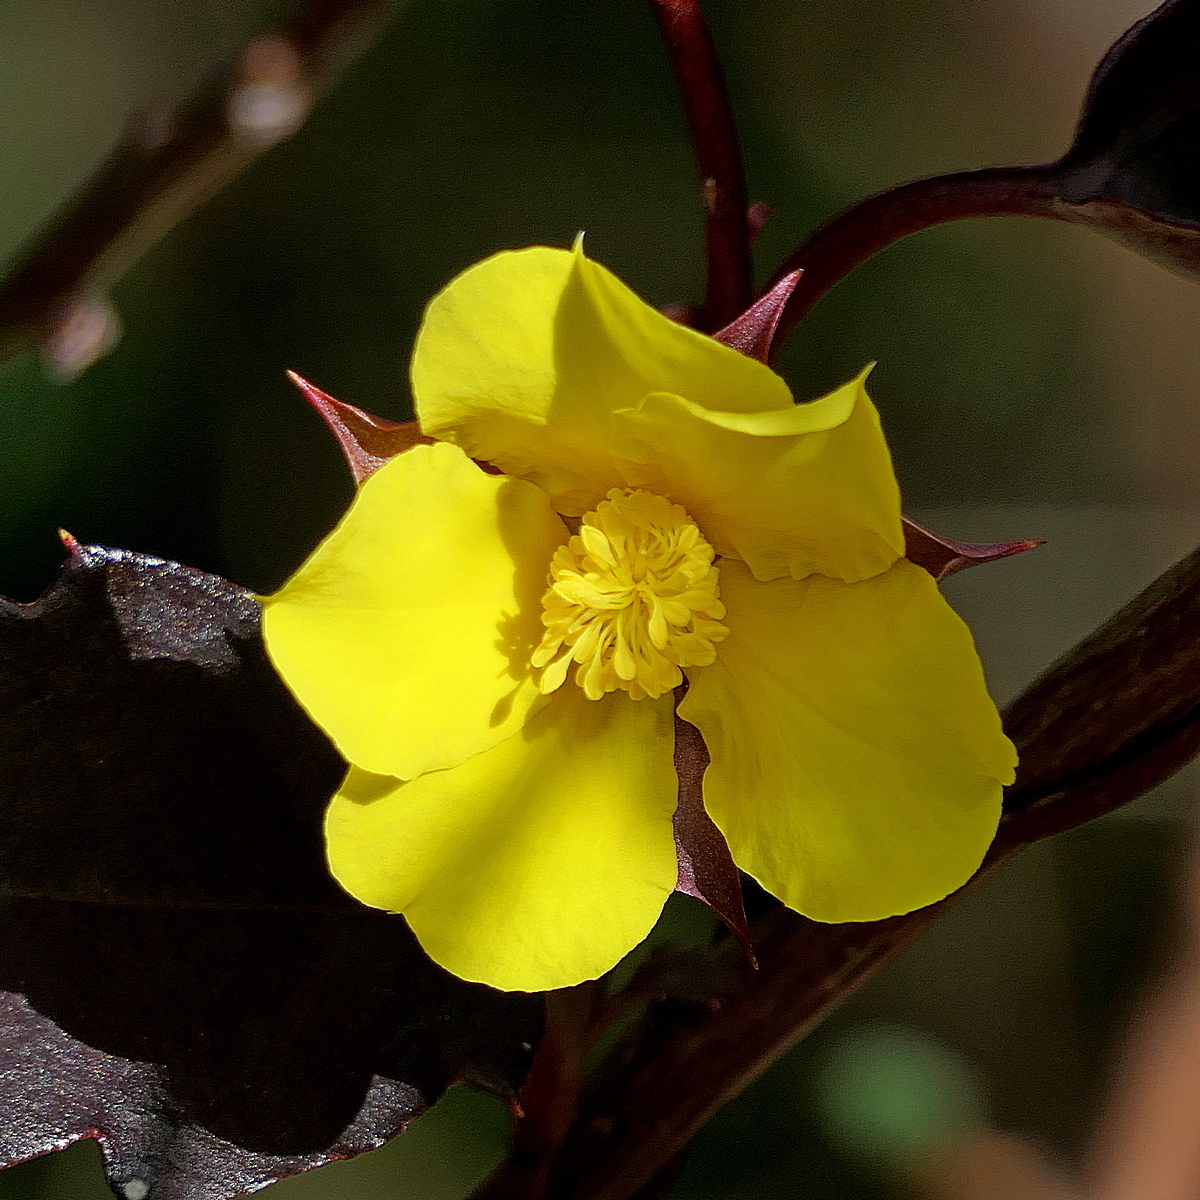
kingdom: Plantae
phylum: Tracheophyta
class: Magnoliopsida
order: Dilleniales
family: Dilleniaceae
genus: Hibbertia
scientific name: Hibbertia dentata
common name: Trailing guinea-flower
